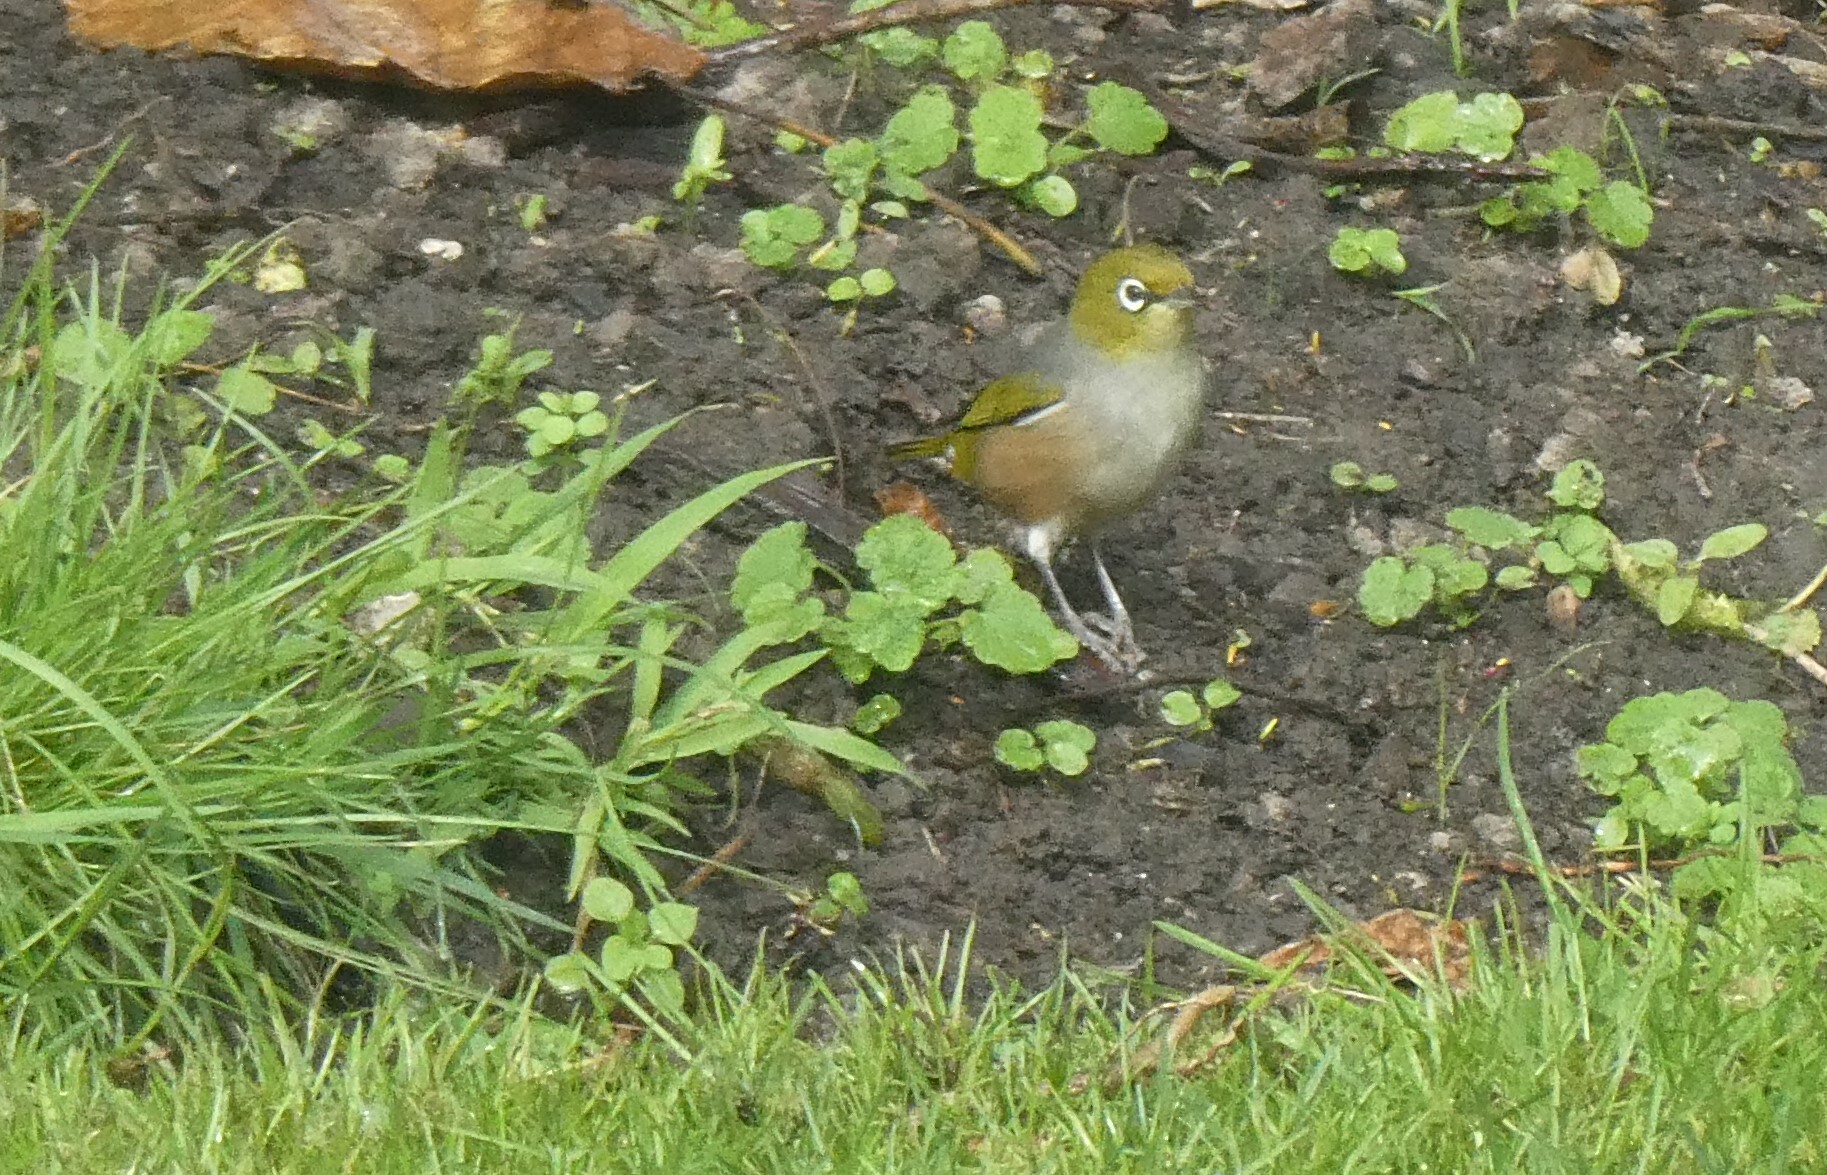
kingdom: Animalia
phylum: Chordata
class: Aves
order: Passeriformes
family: Zosteropidae
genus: Zosterops
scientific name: Zosterops lateralis
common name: Silvereye
